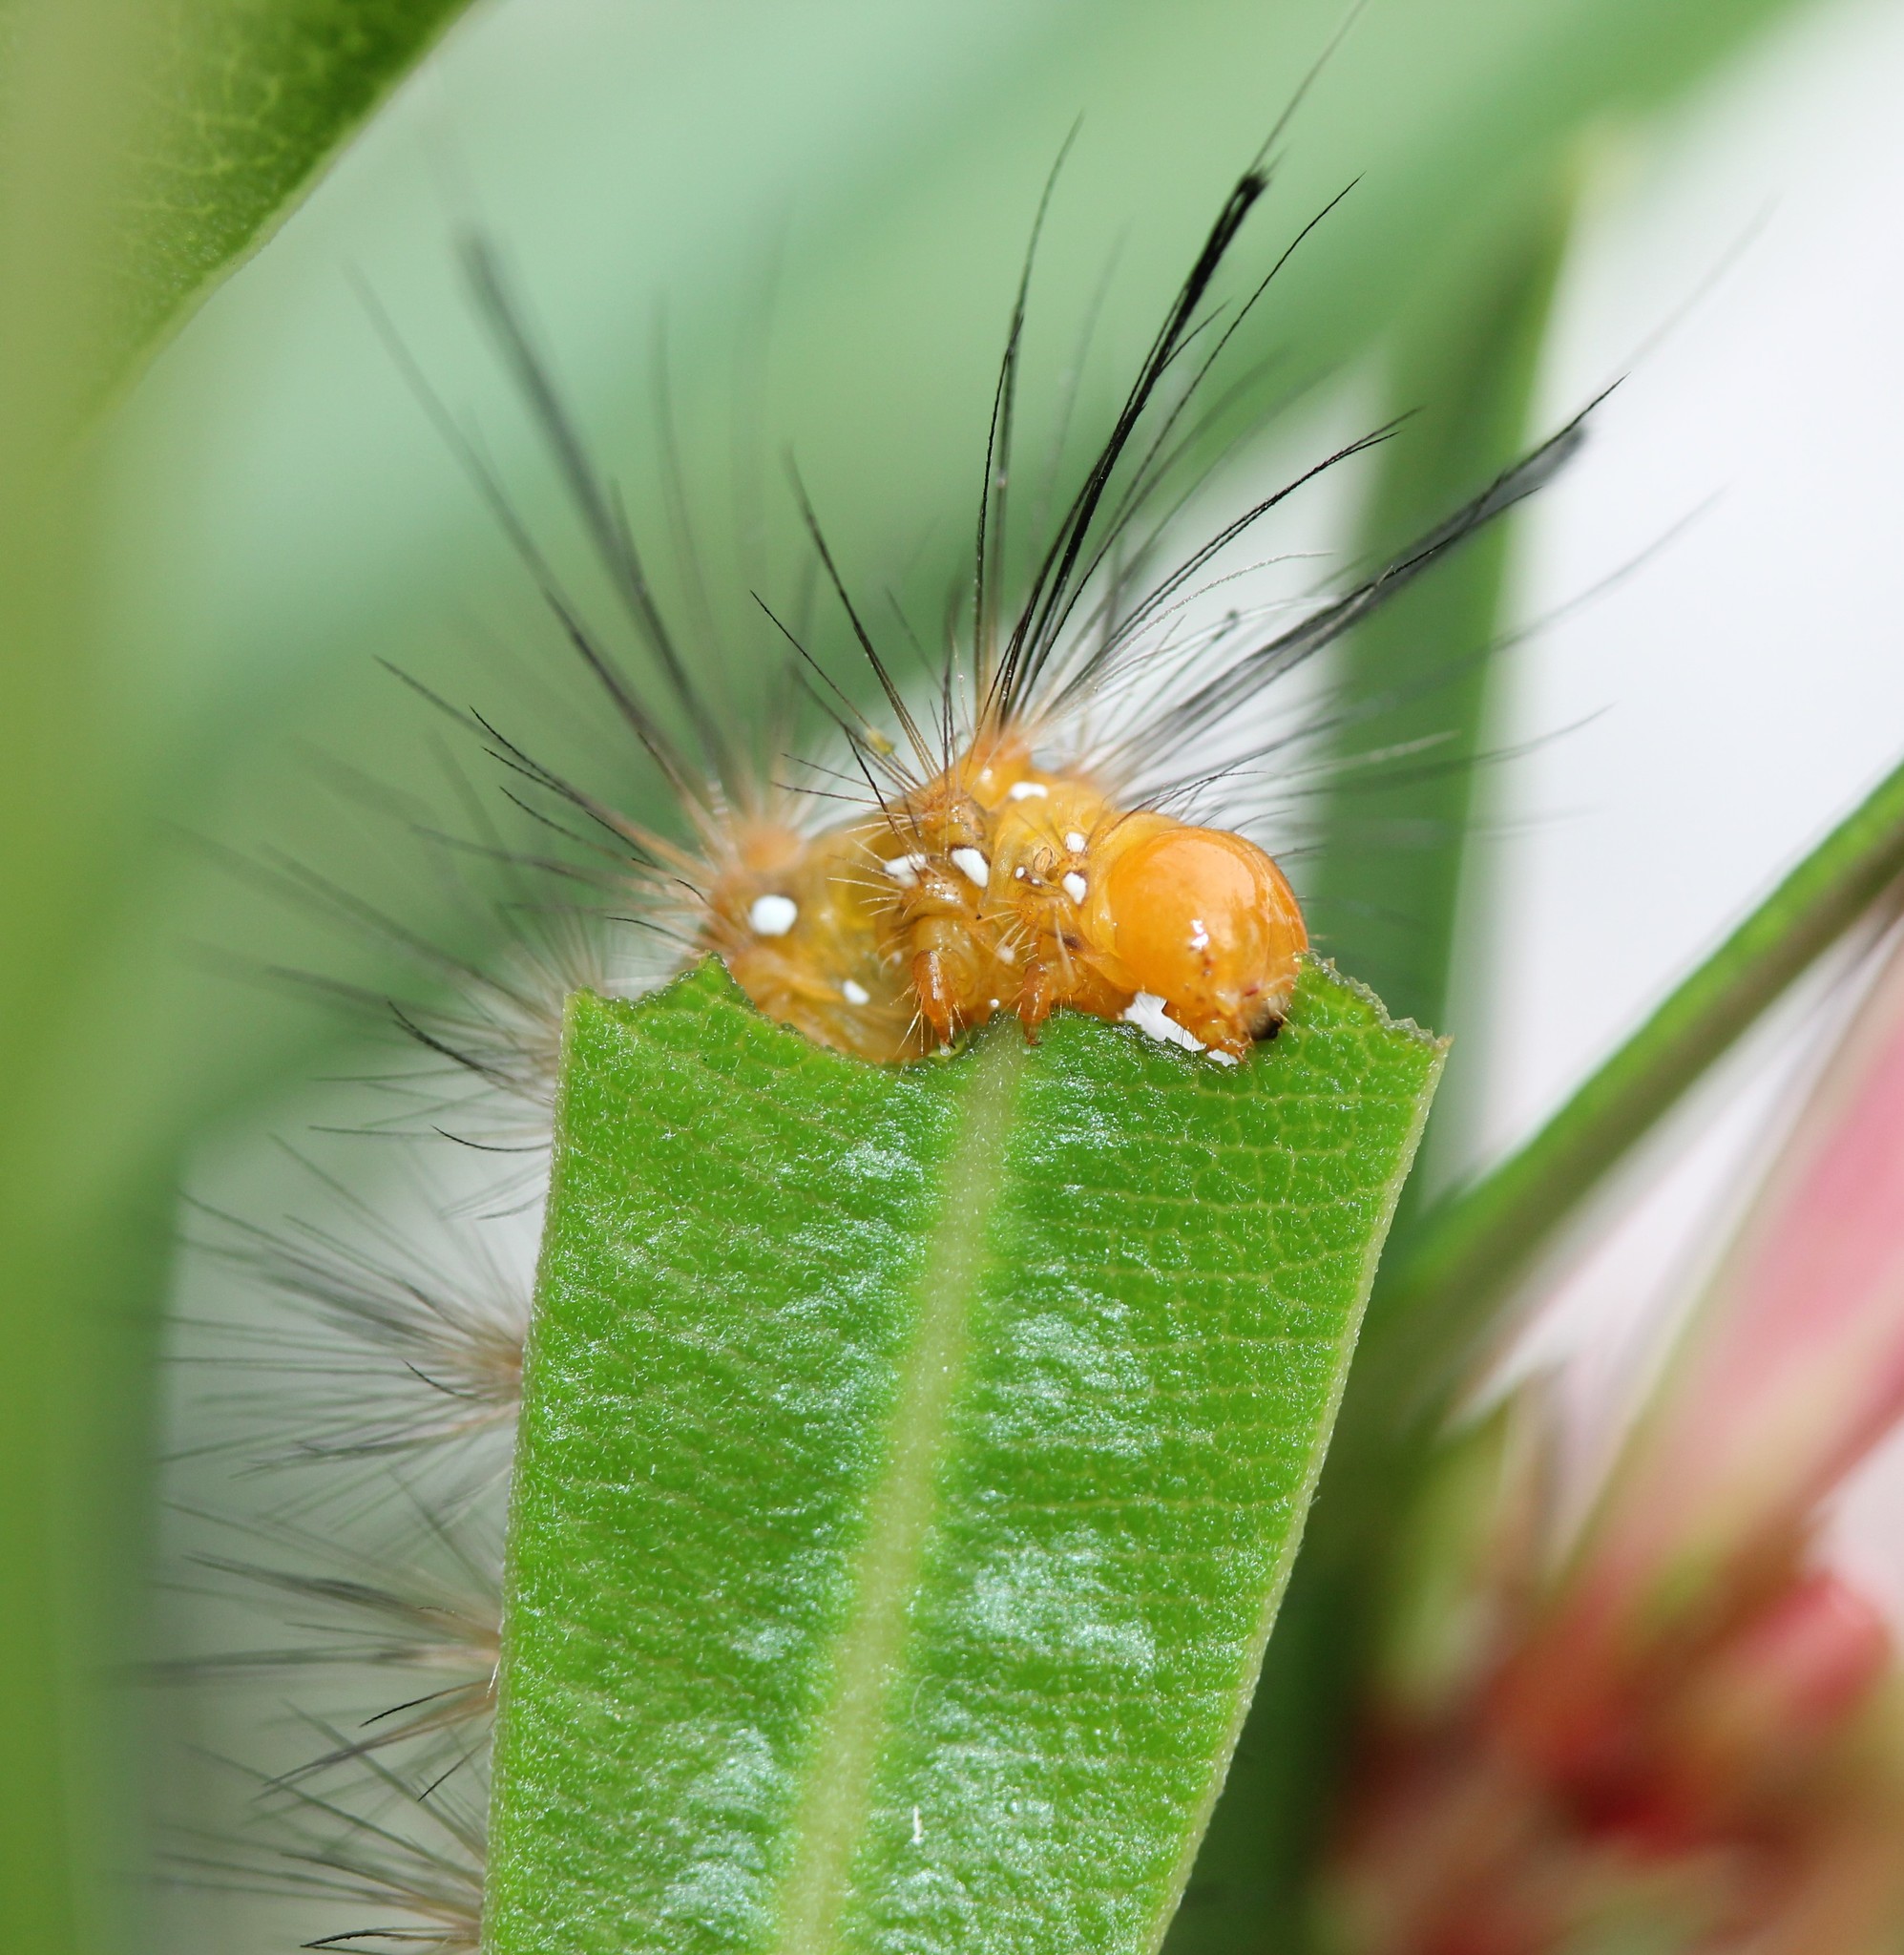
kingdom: Animalia
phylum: Arthropoda
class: Insecta
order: Lepidoptera
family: Erebidae
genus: Empyreuma
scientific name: Empyreuma pugione
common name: Spotted oleander caterpillar moth
